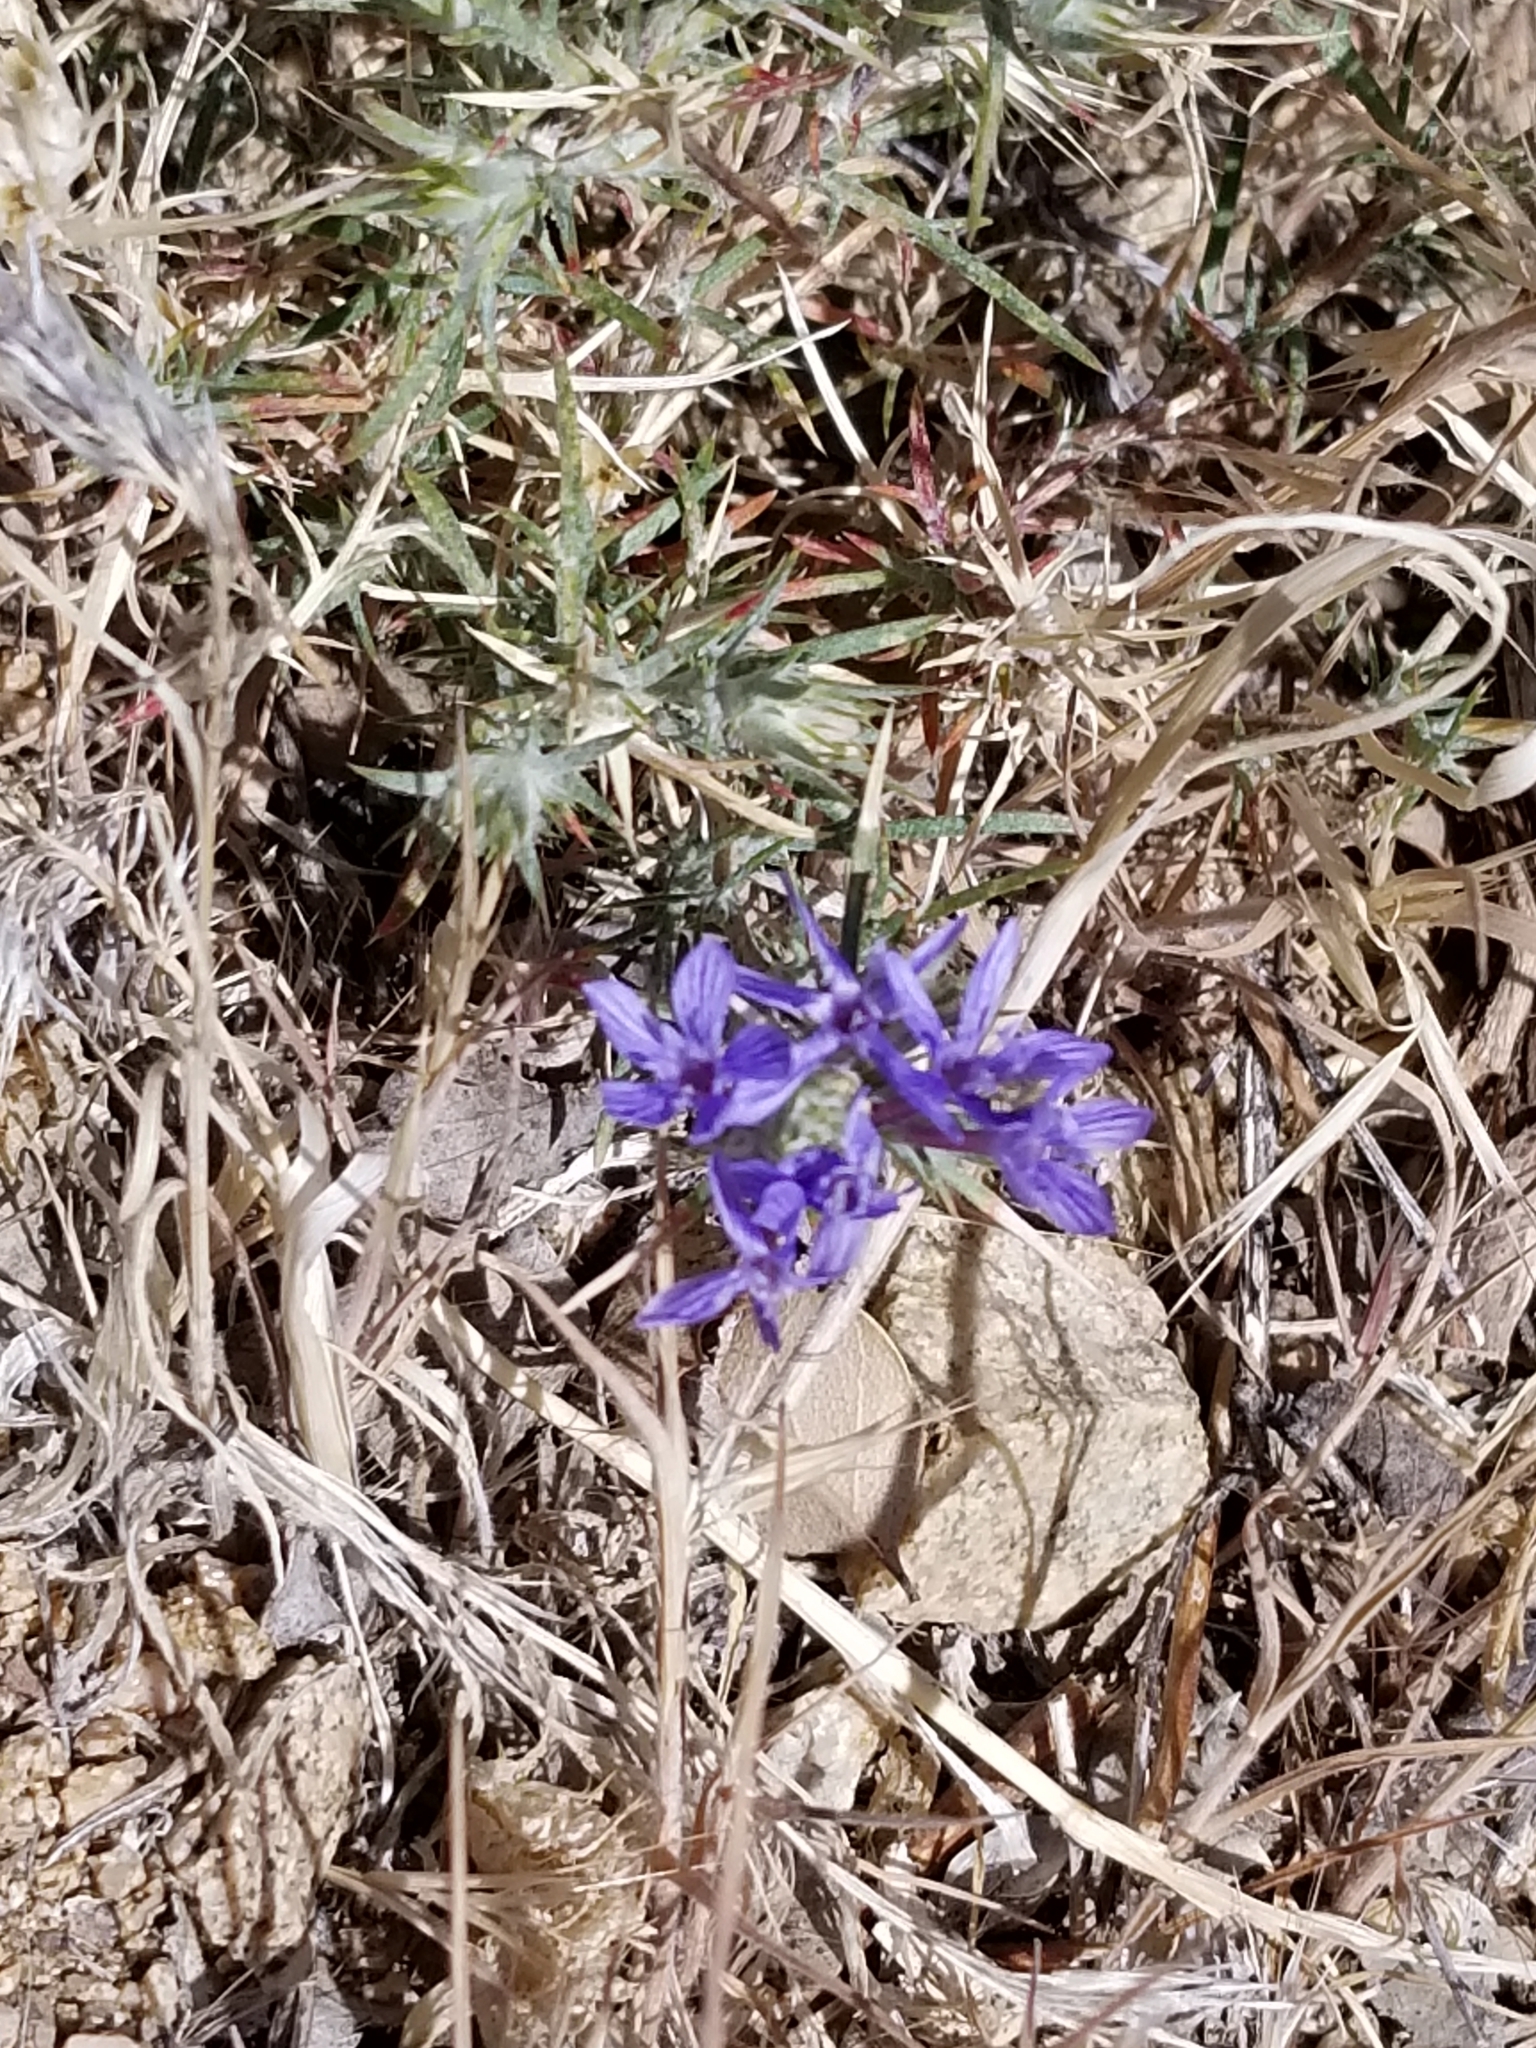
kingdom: Plantae
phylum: Tracheophyta
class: Magnoliopsida
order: Ericales
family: Polemoniaceae
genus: Eriastrum
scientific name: Eriastrum densifolium
